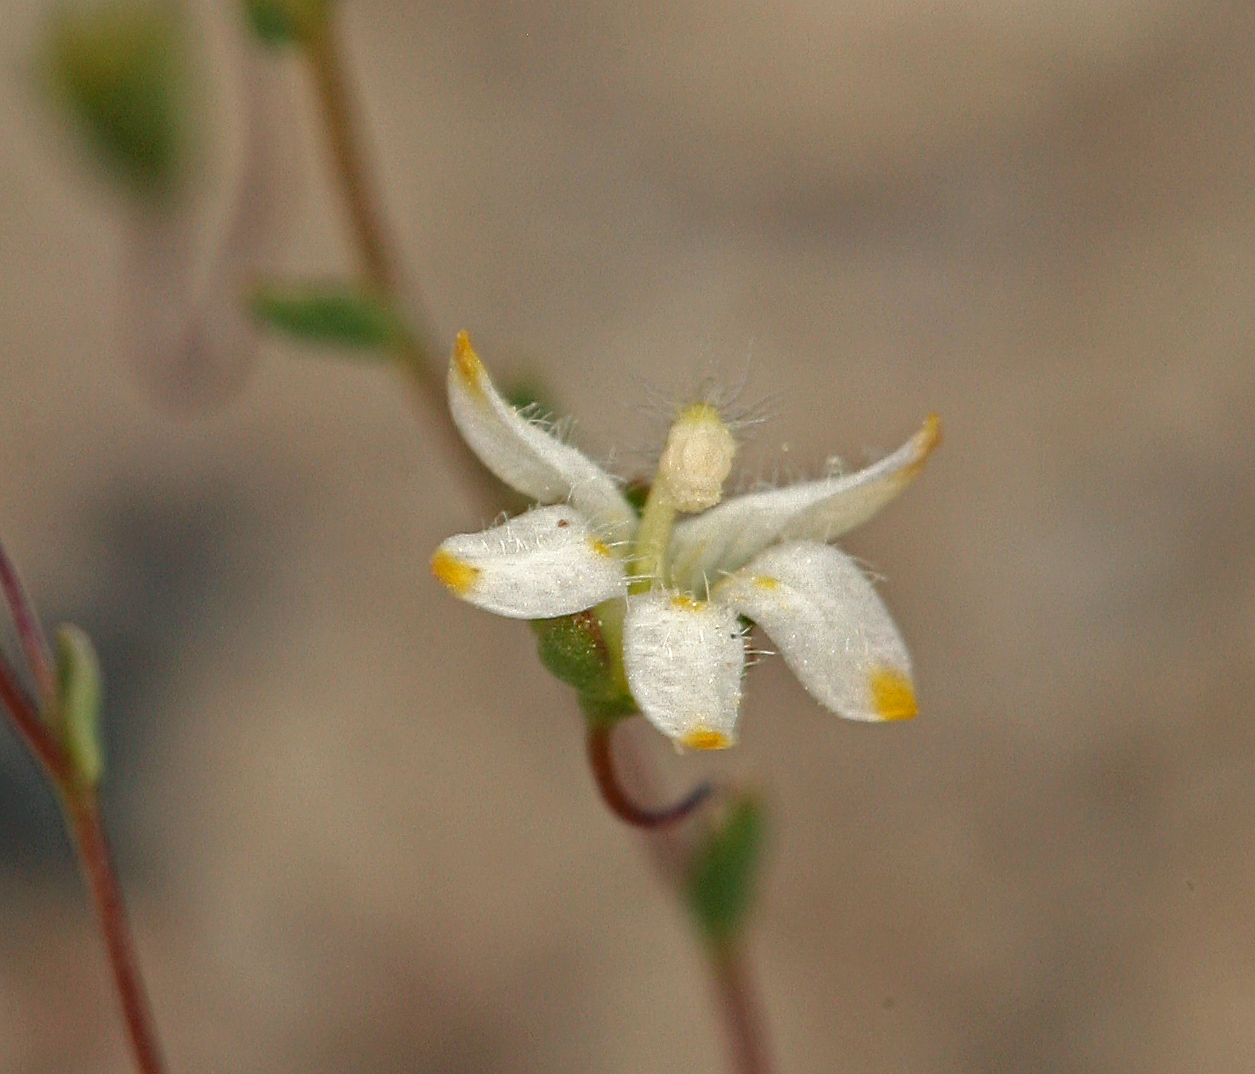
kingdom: Plantae
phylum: Tracheophyta
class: Magnoliopsida
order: Asterales
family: Campanulaceae
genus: Nemacladus
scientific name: Nemacladus matsonii
